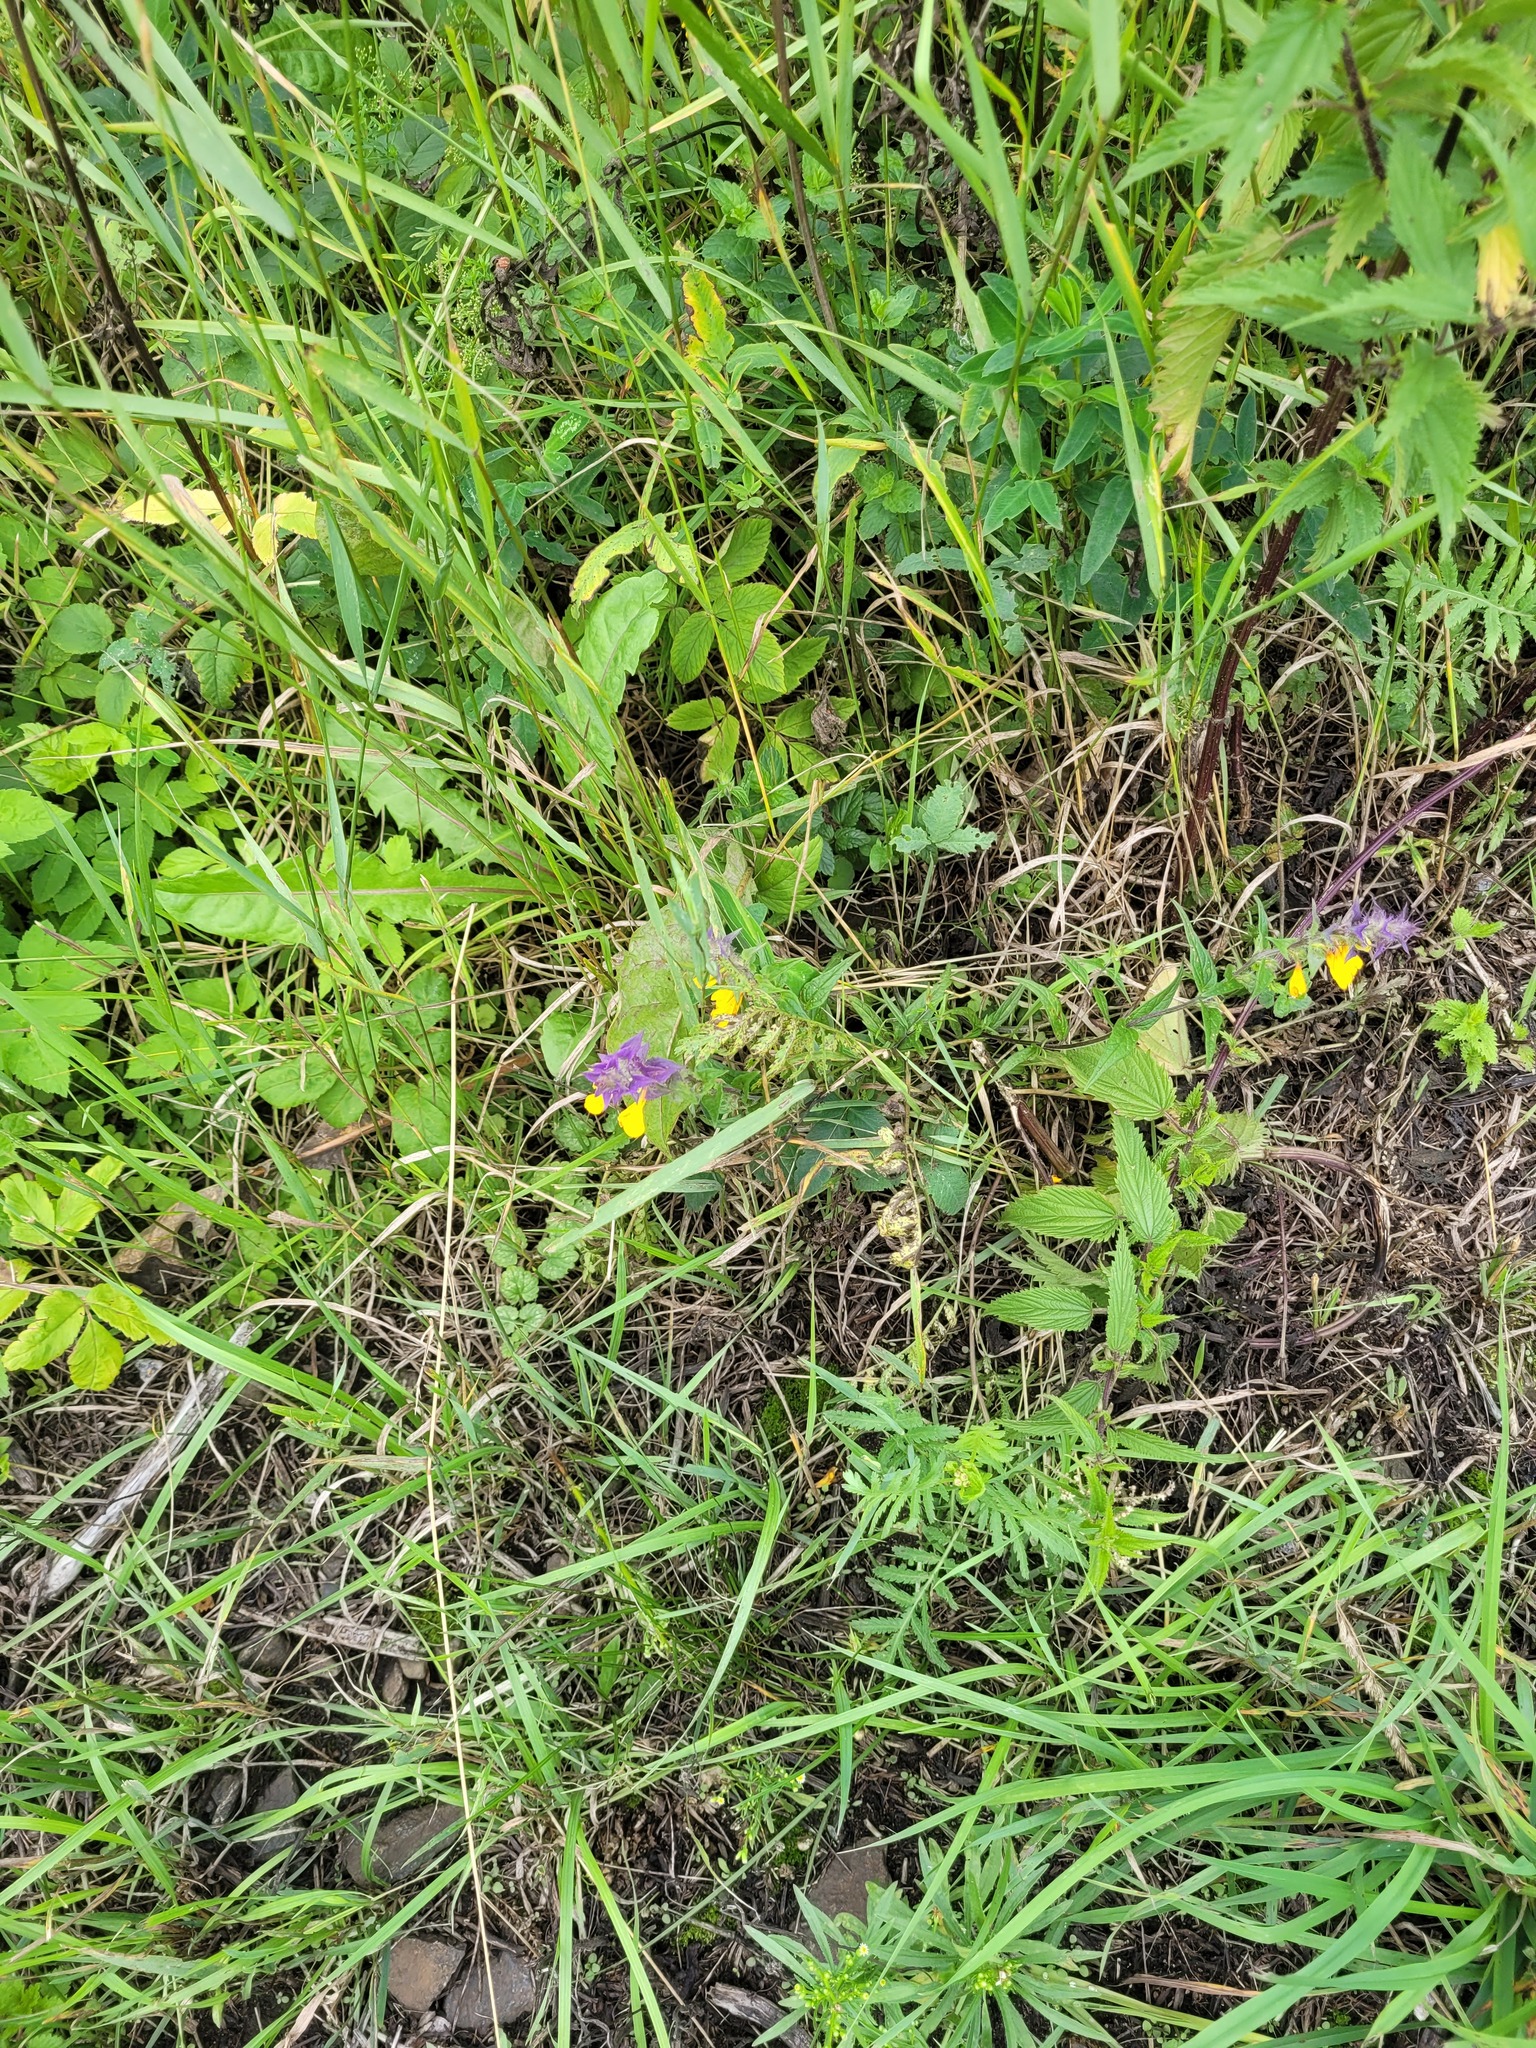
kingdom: Plantae
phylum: Tracheophyta
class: Magnoliopsida
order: Lamiales
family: Orobanchaceae
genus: Melampyrum
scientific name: Melampyrum nemorosum
